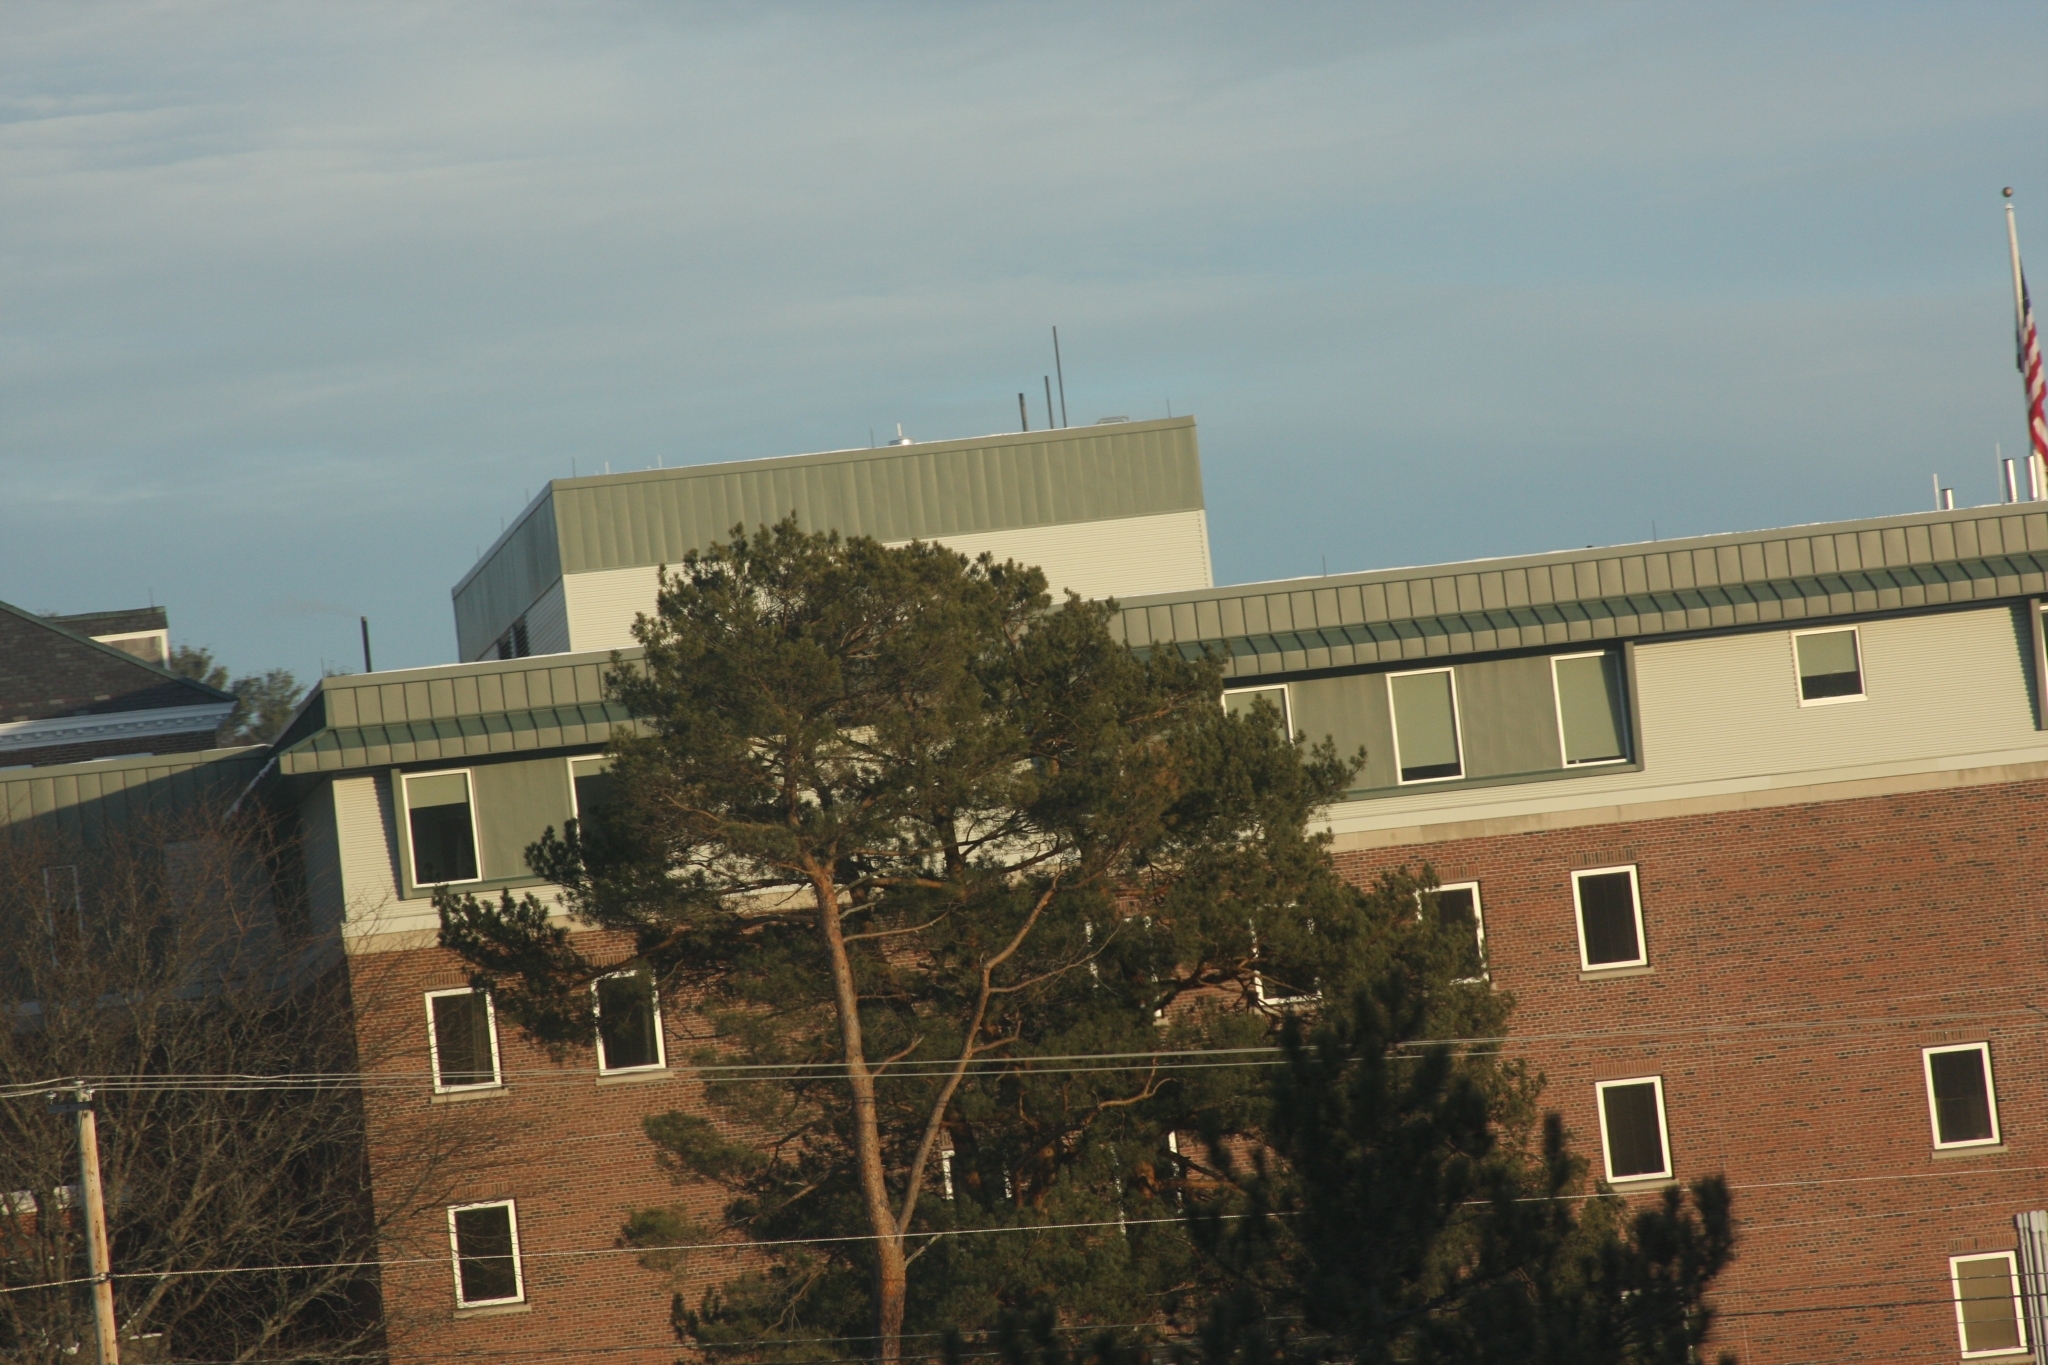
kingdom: Plantae
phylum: Tracheophyta
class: Pinopsida
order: Pinales
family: Pinaceae
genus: Pinus
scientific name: Pinus strobus
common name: Weymouth pine
